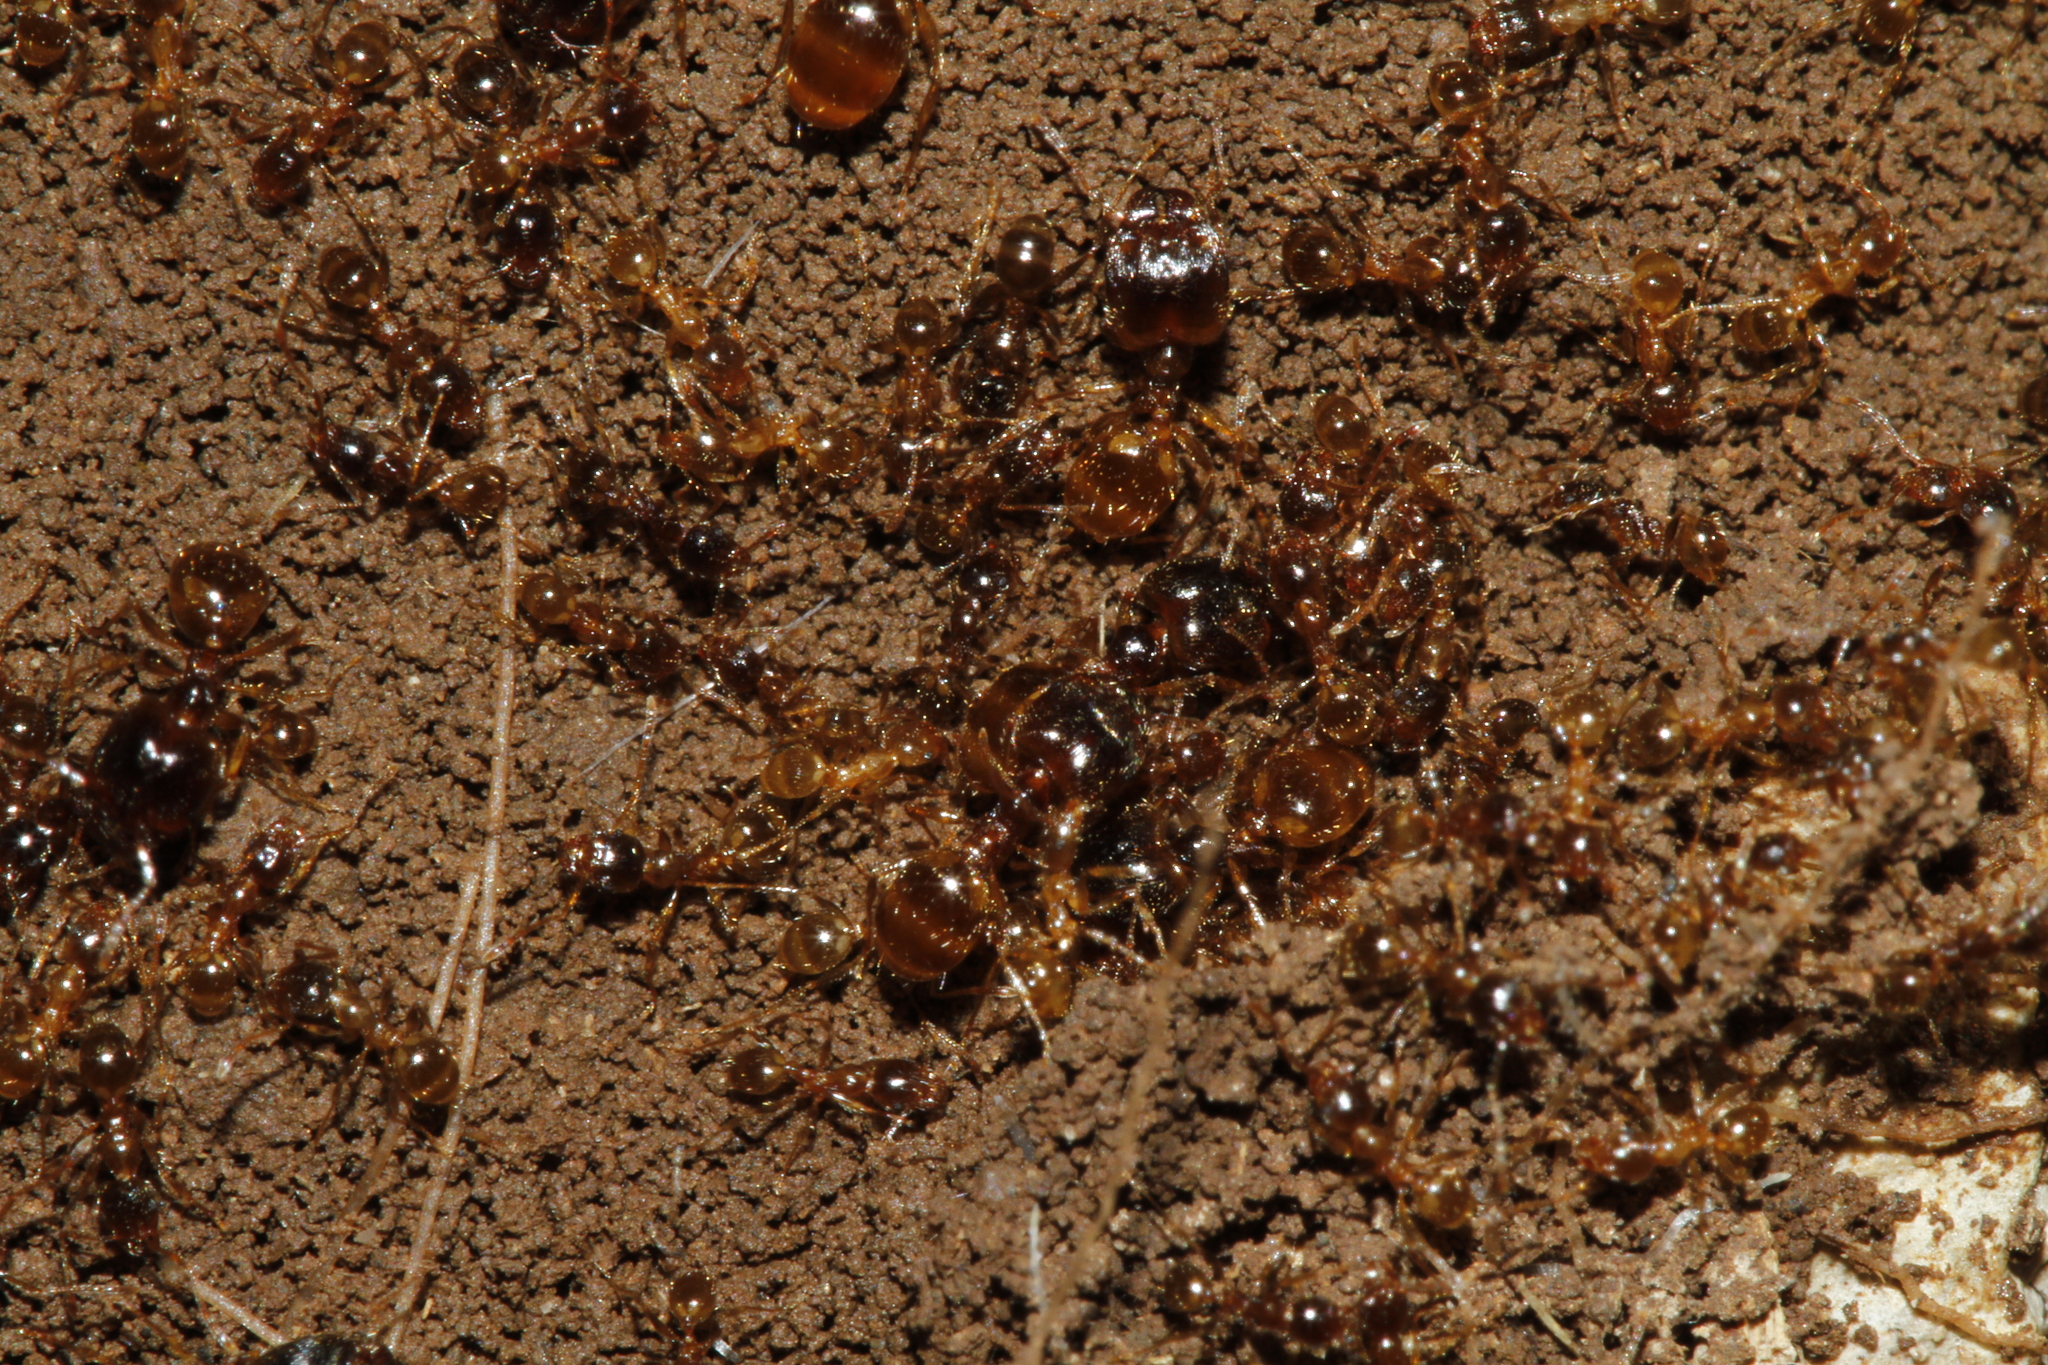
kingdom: Animalia
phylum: Arthropoda
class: Insecta
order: Hymenoptera
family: Formicidae
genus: Pheidole
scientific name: Pheidole pallidula
